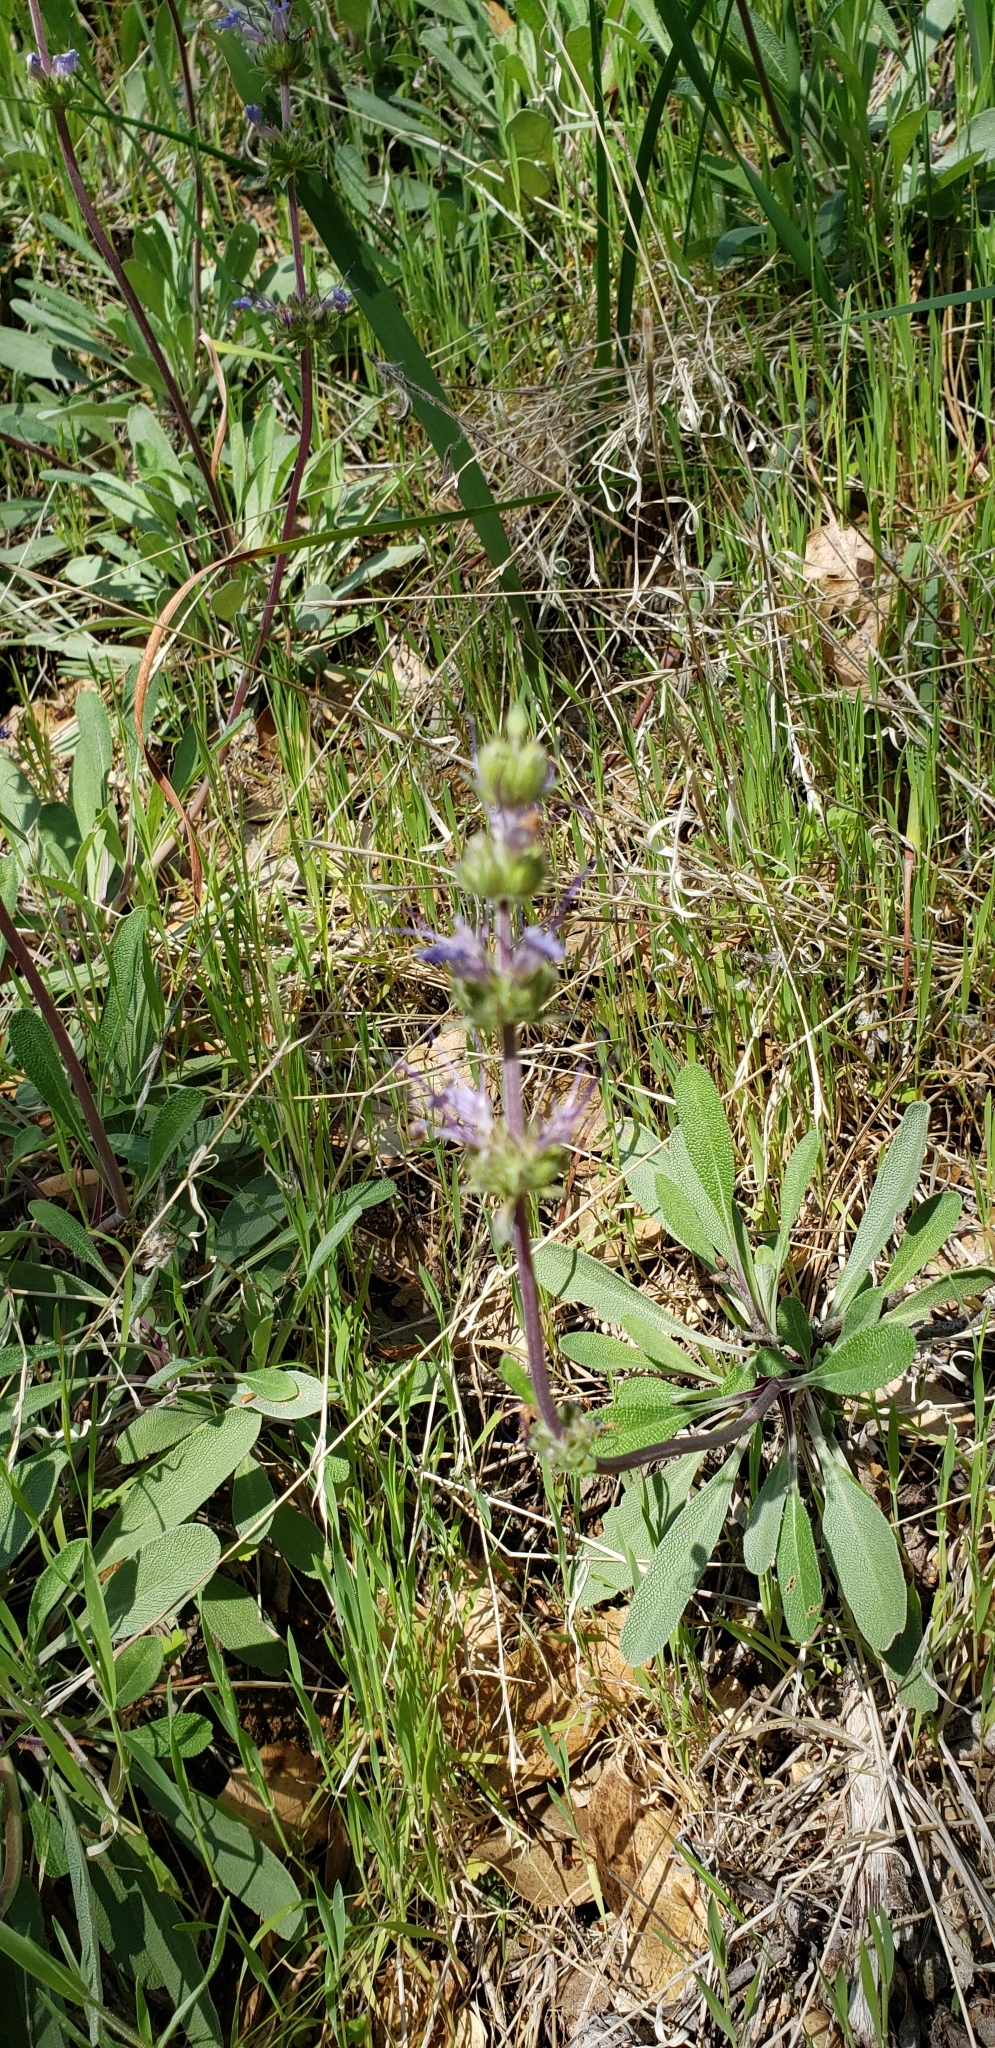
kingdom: Plantae
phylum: Tracheophyta
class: Magnoliopsida
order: Lamiales
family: Lamiaceae
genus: Salvia
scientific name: Salvia sonomensis
